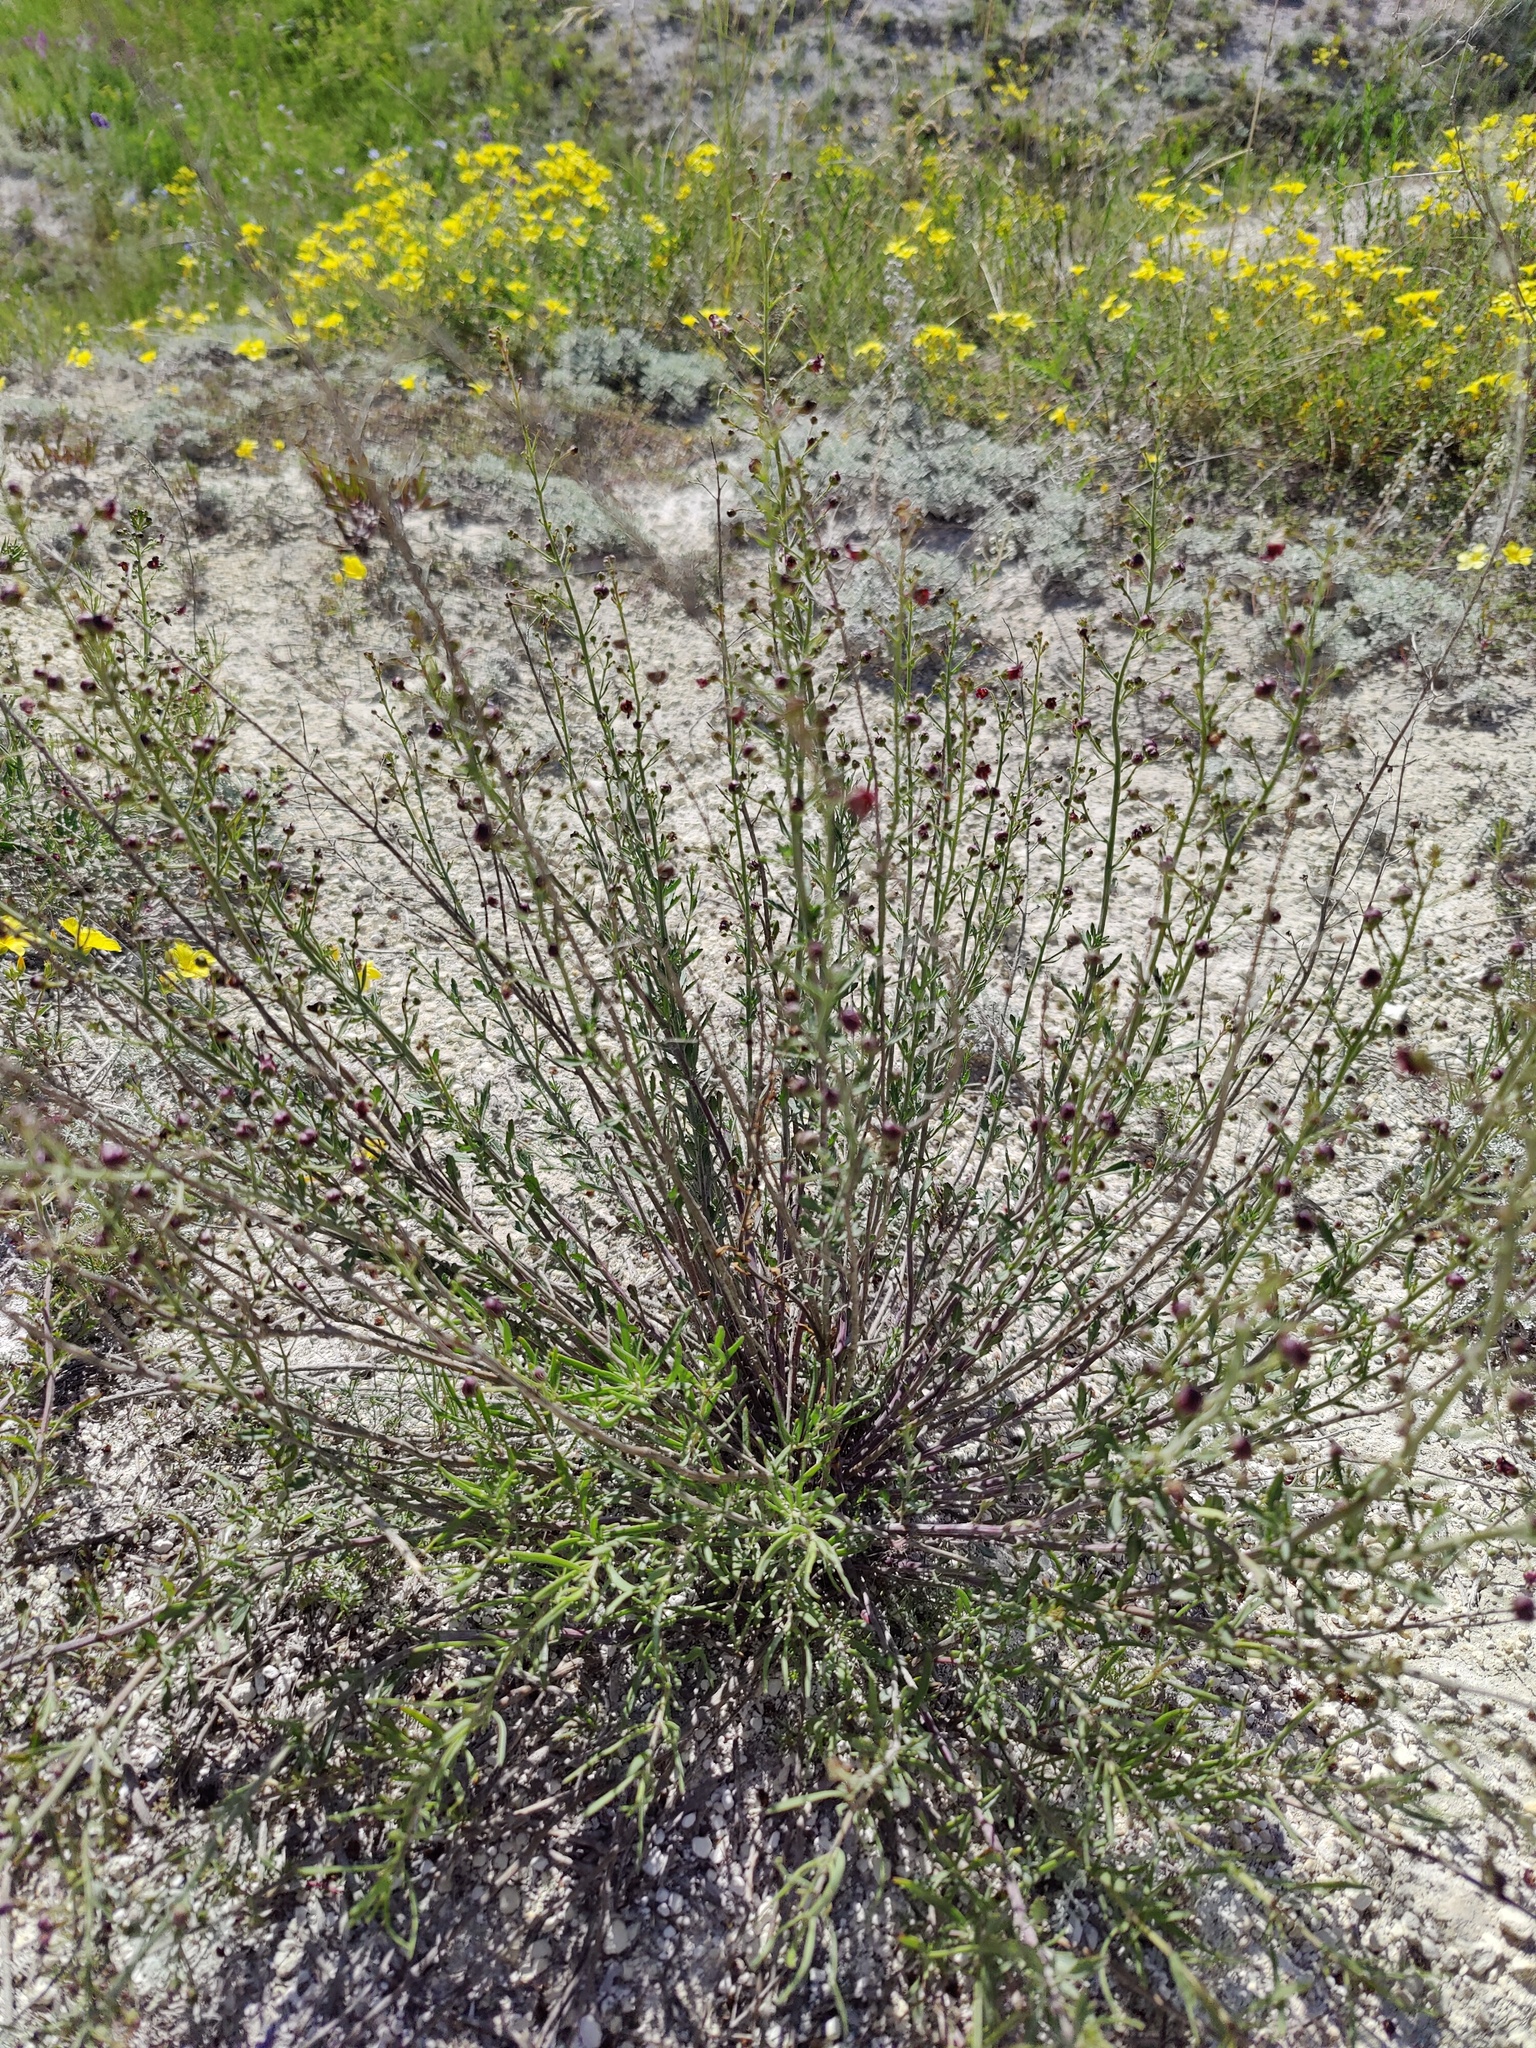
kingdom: Plantae
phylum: Tracheophyta
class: Magnoliopsida
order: Lamiales
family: Scrophulariaceae
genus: Scrophularia
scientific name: Scrophularia cretacea
